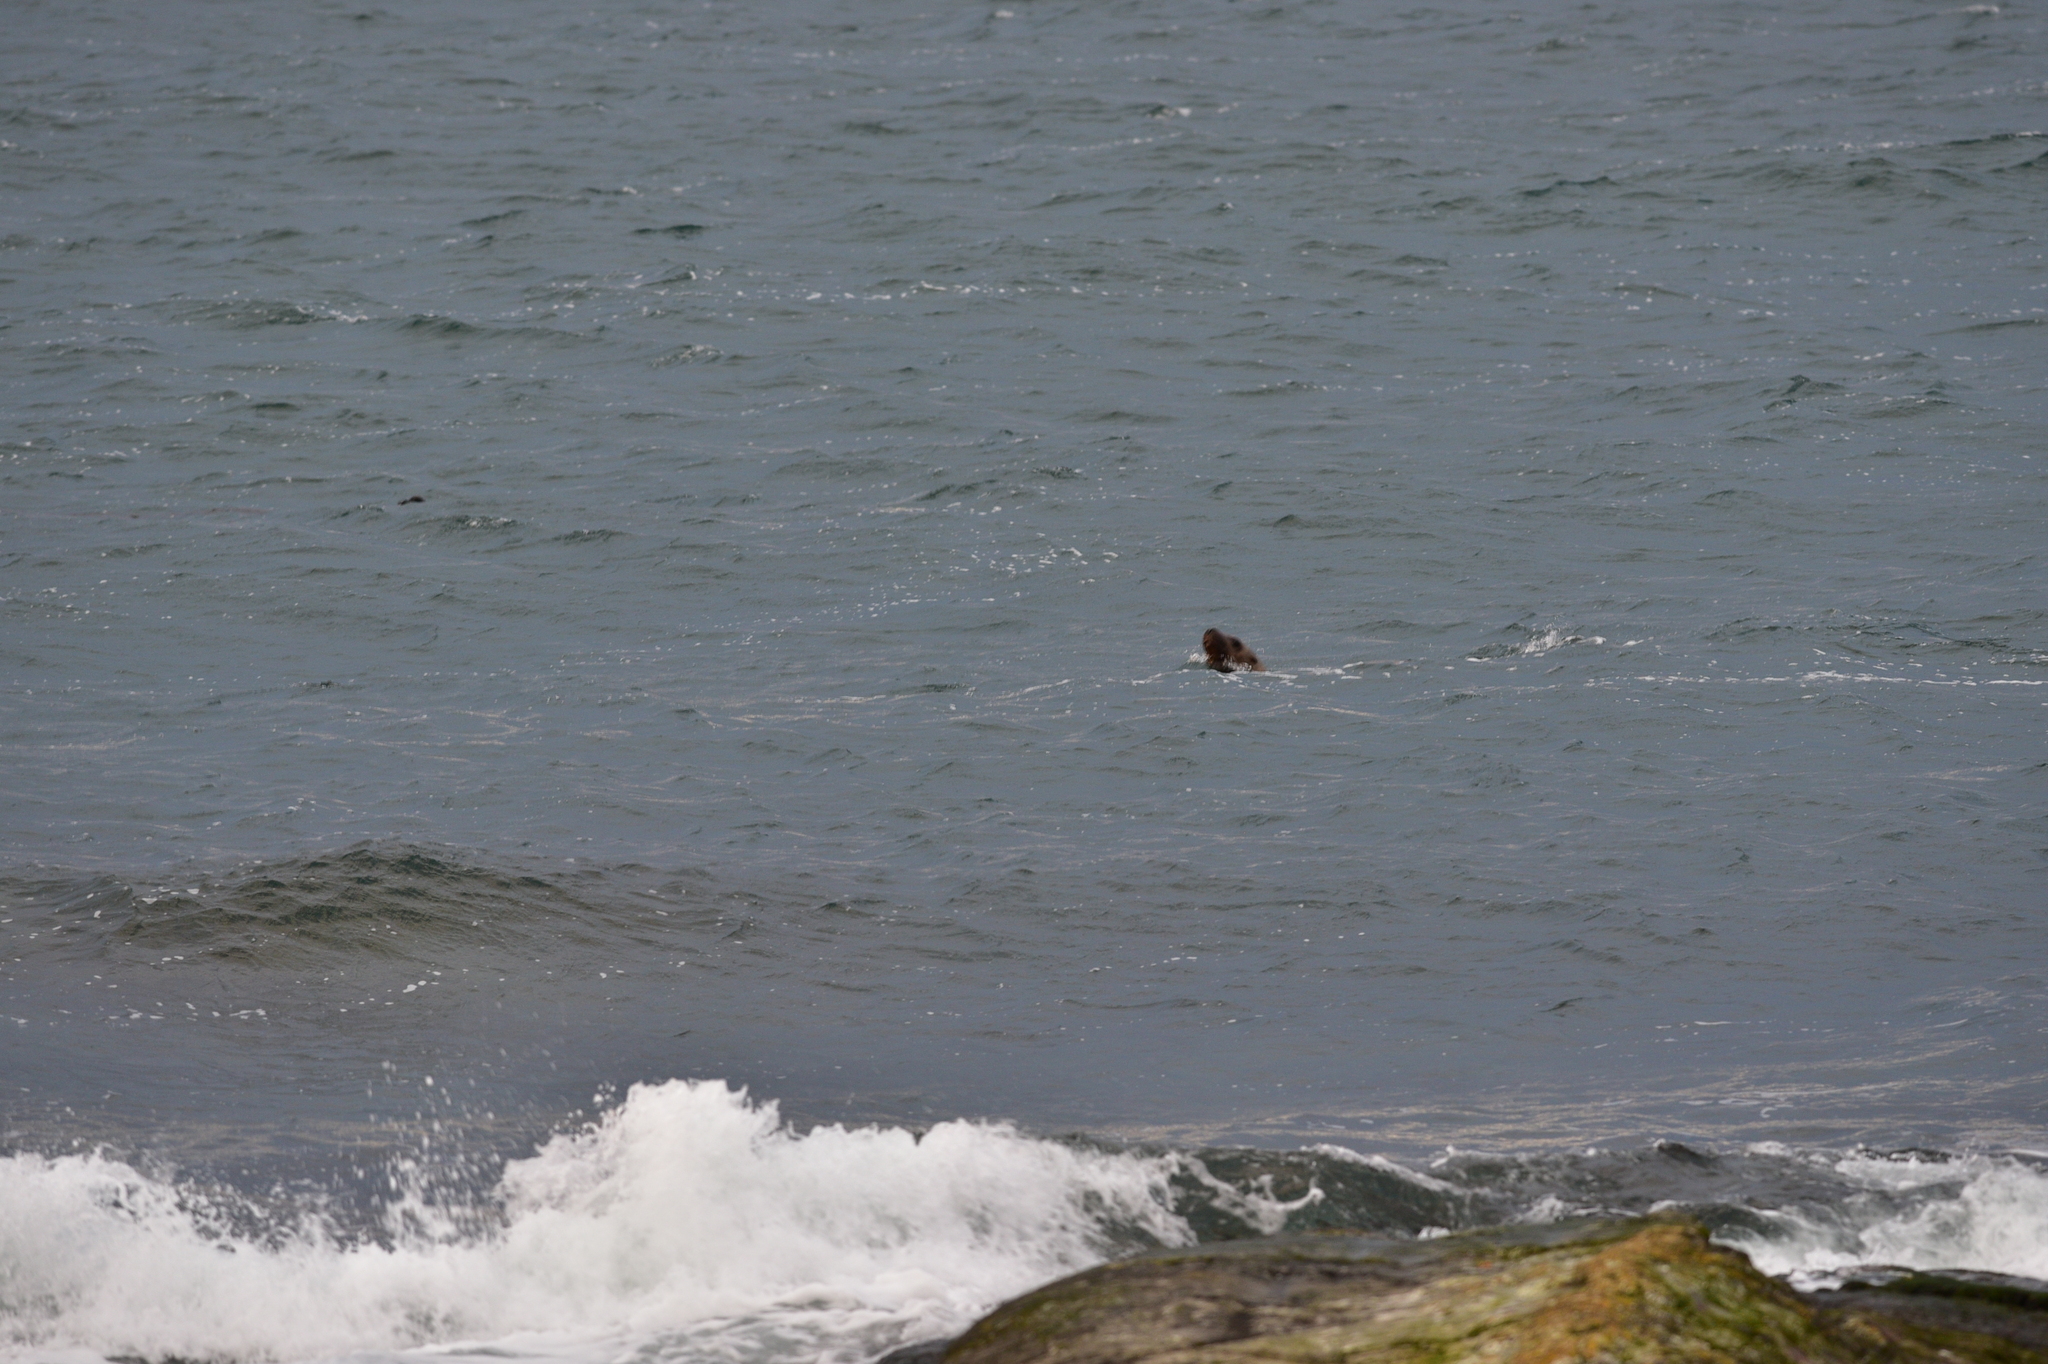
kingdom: Animalia
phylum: Chordata
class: Mammalia
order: Carnivora
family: Otariidae
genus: Eumetopias
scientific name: Eumetopias jubatus
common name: Steller sea lion
